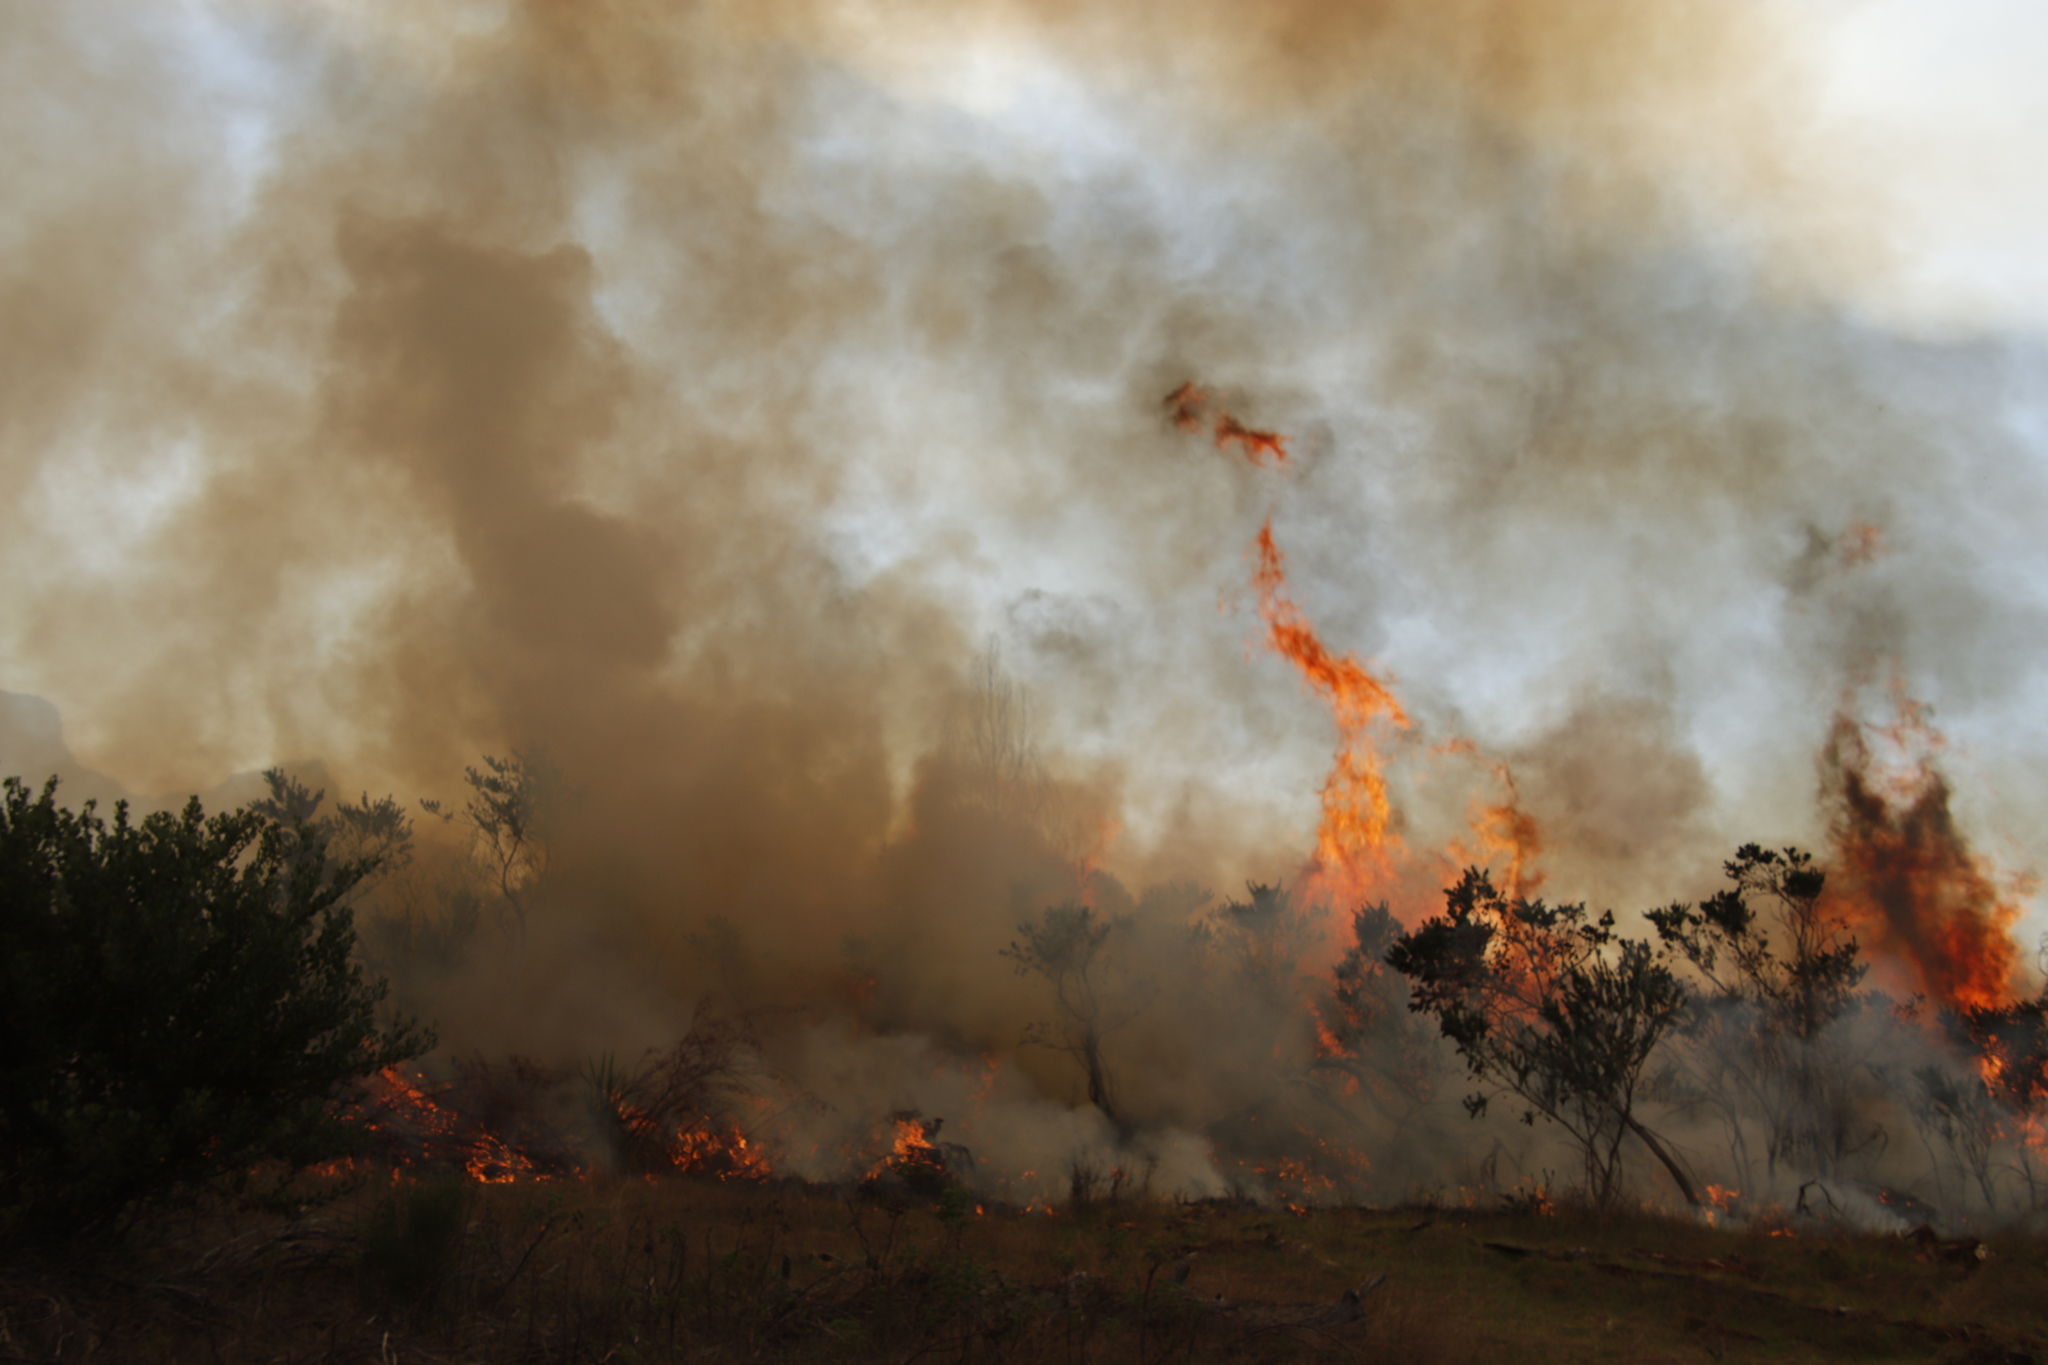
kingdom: Plantae
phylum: Tracheophyta
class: Magnoliopsida
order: Fabales
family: Fabaceae
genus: Psoralea
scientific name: Psoralea pinnata
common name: African scurfpea
